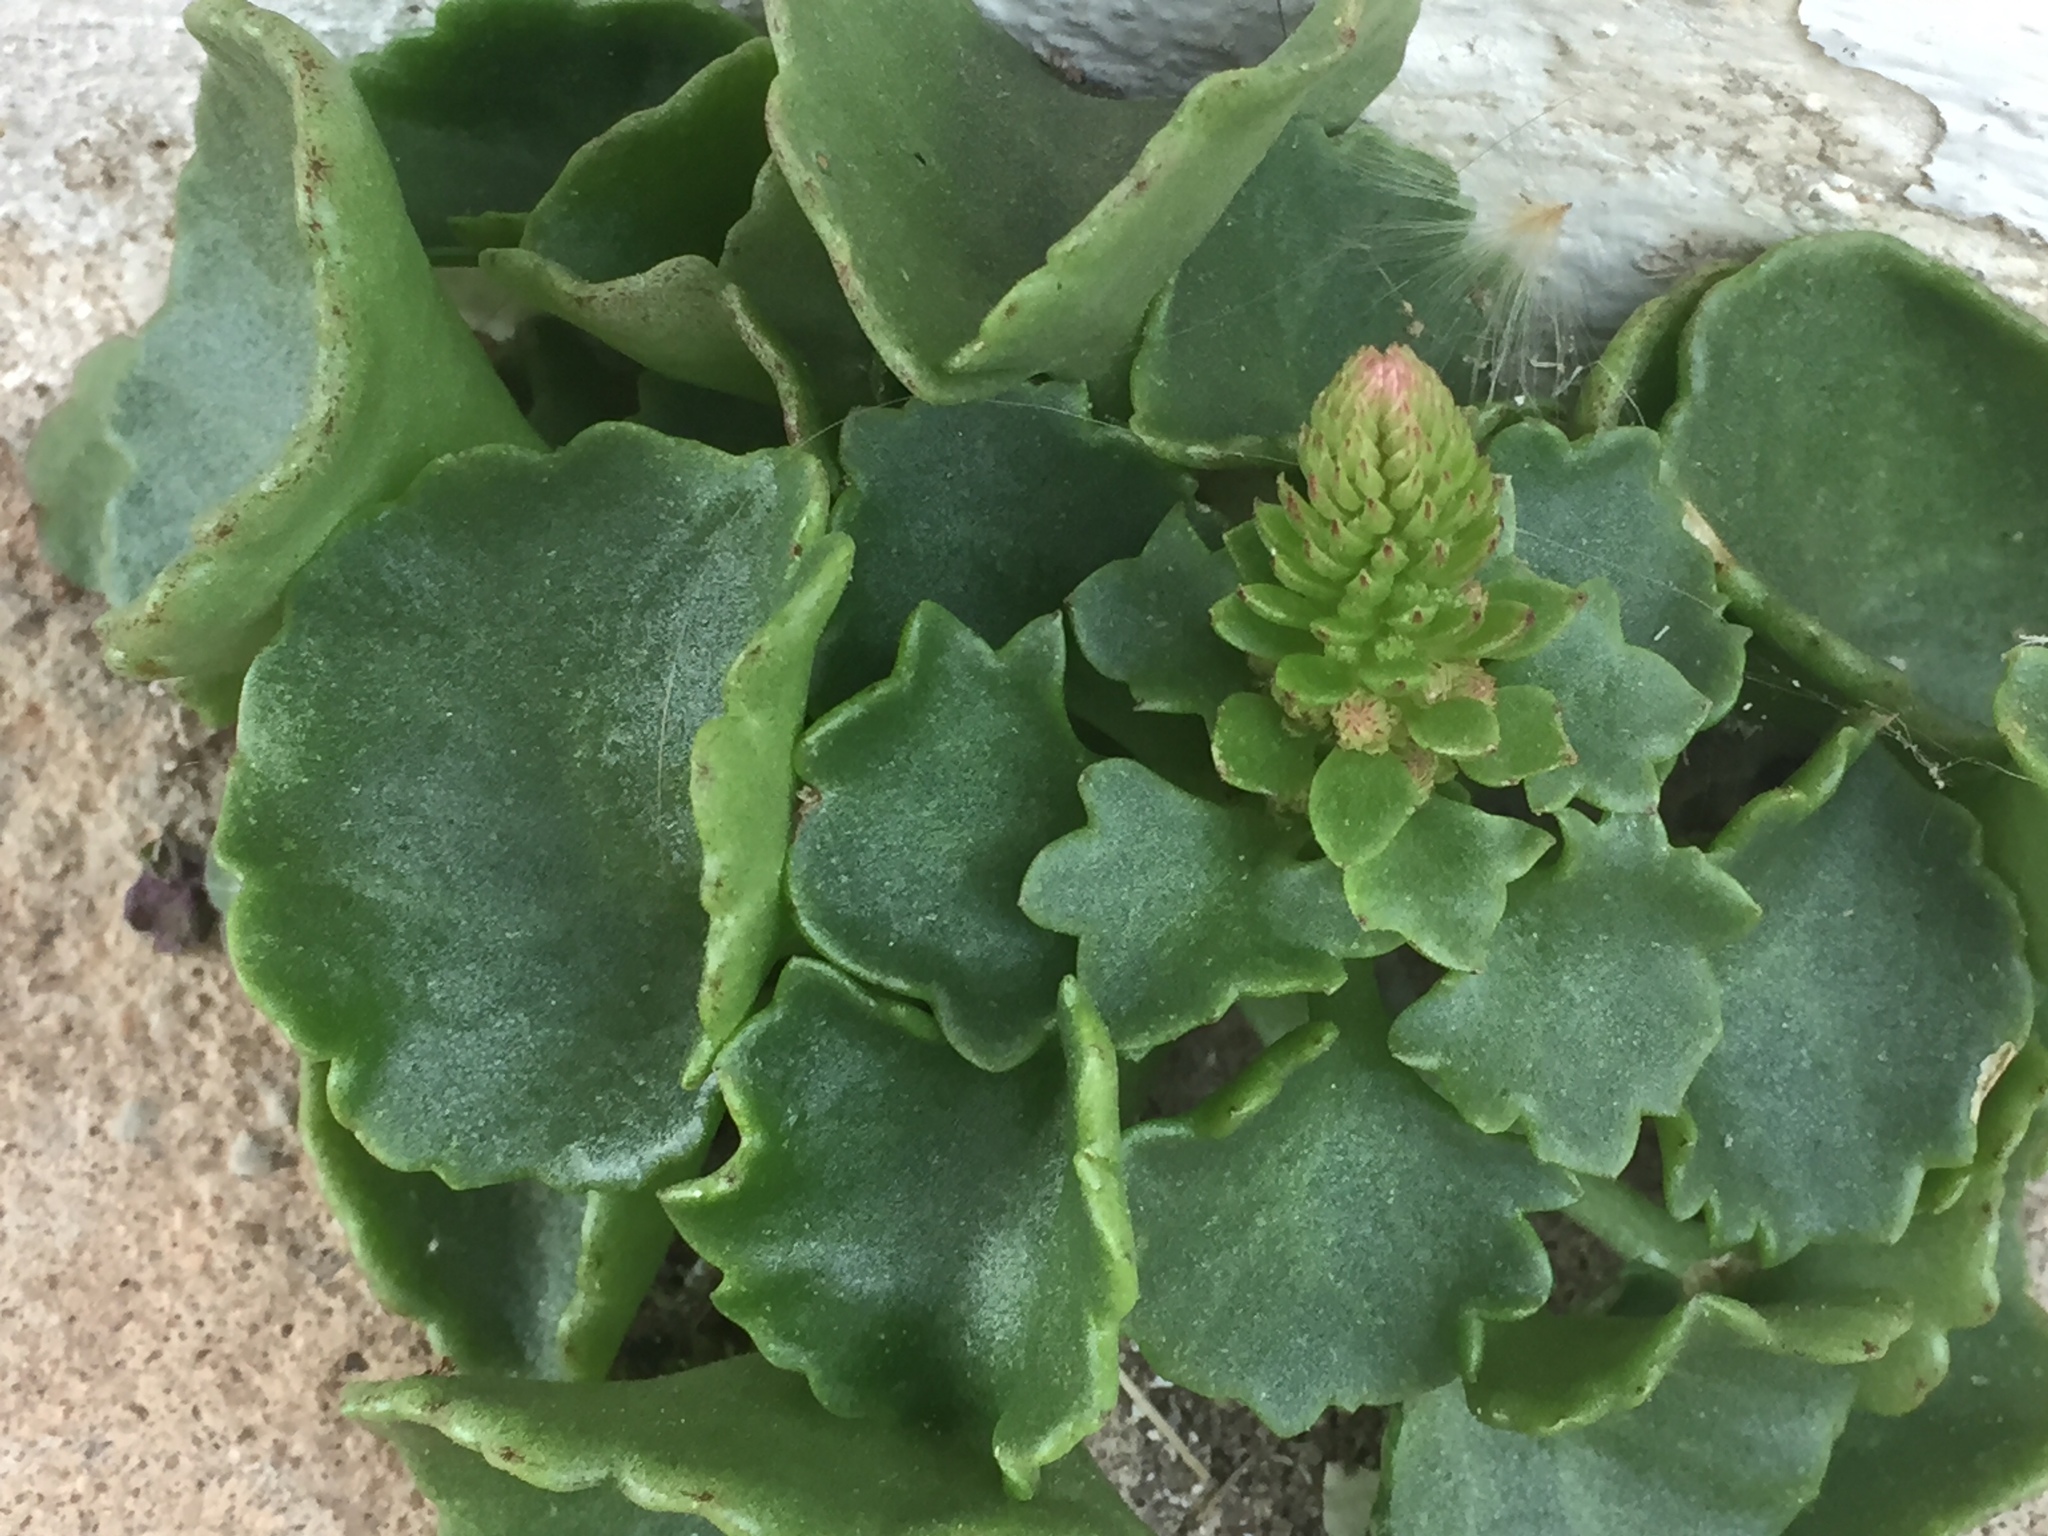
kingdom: Plantae
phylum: Tracheophyta
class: Magnoliopsida
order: Saxifragales
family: Crassulaceae
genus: Umbilicus
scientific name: Umbilicus rupestris
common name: Navelwort
